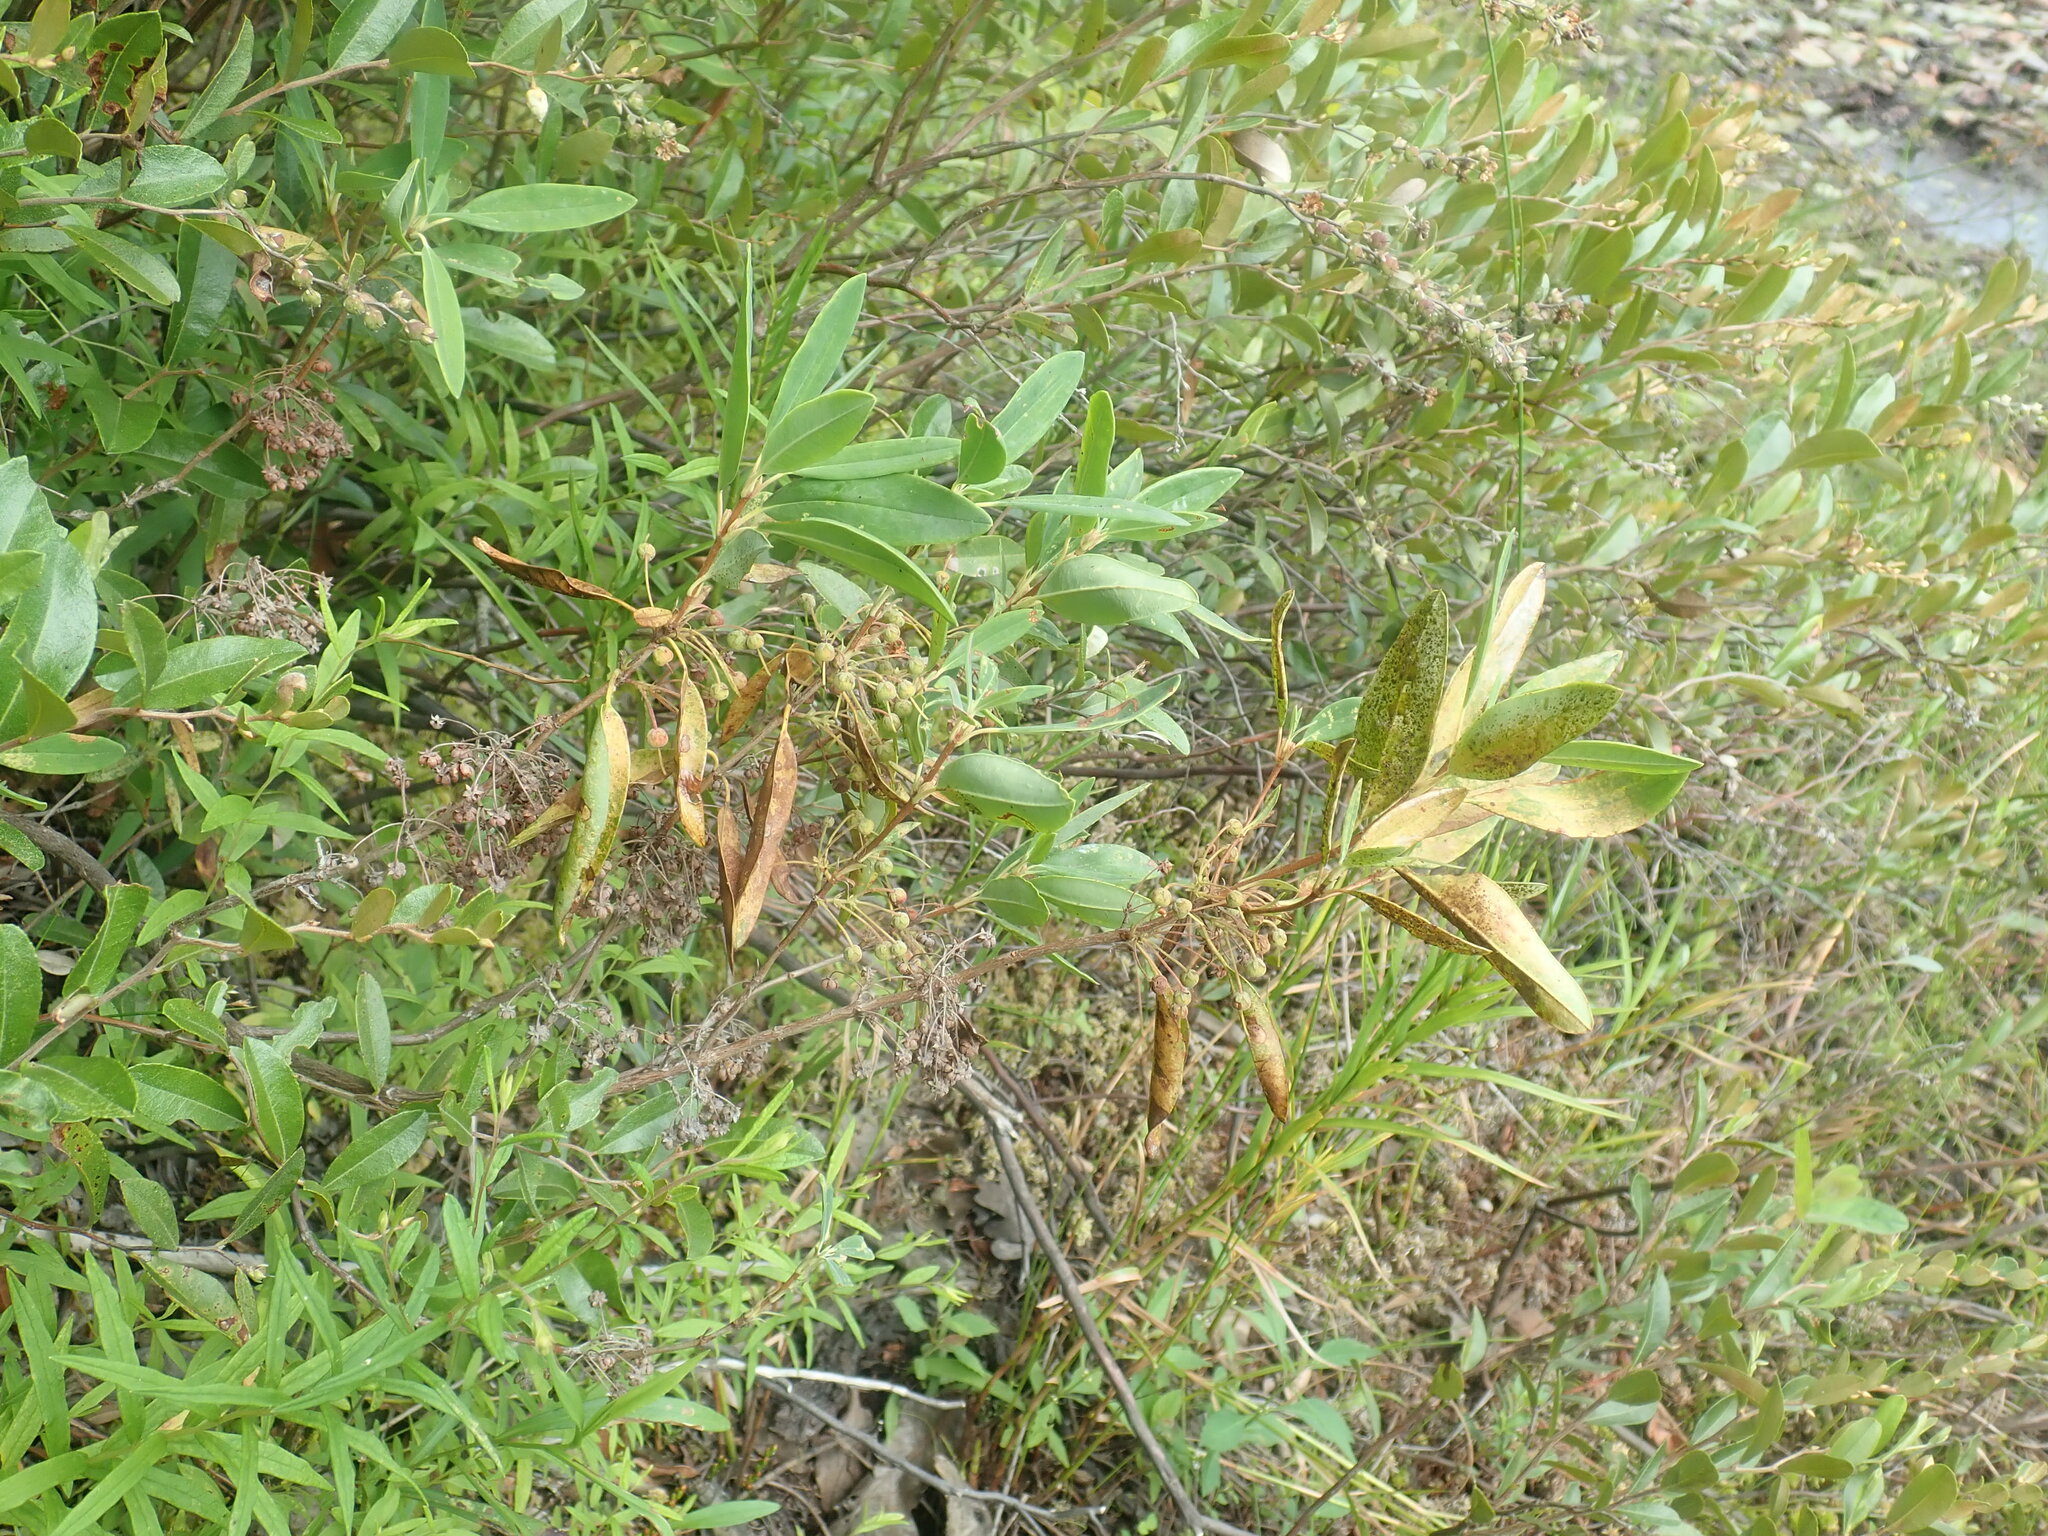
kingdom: Plantae
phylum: Tracheophyta
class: Magnoliopsida
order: Ericales
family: Ericaceae
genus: Kalmia
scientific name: Kalmia angustifolia
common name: Sheep-laurel
